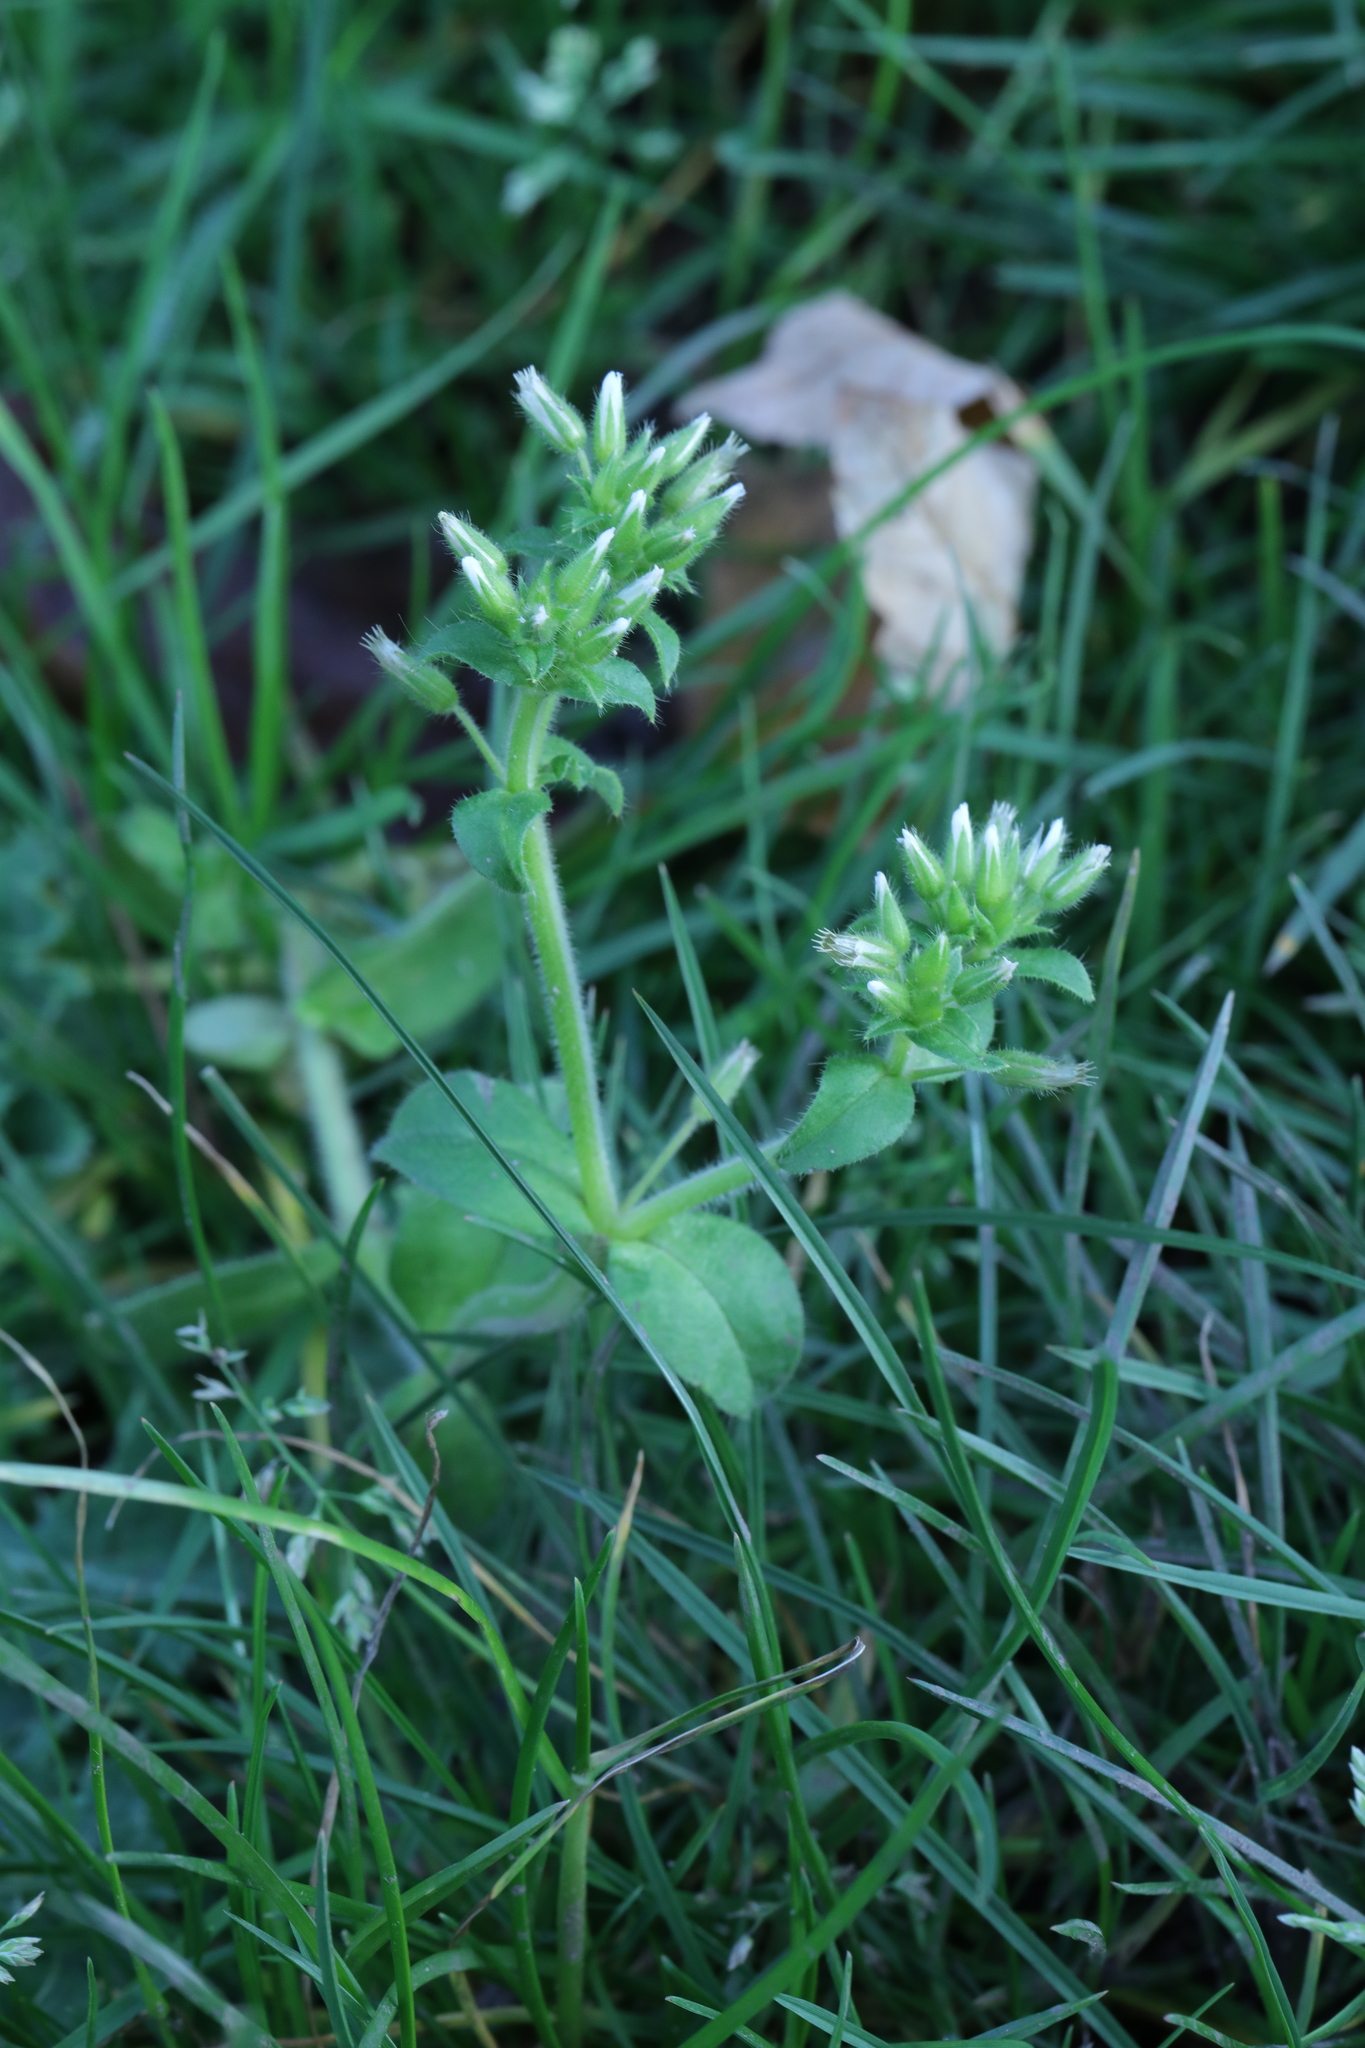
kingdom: Plantae
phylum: Tracheophyta
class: Magnoliopsida
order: Caryophyllales
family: Caryophyllaceae
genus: Cerastium
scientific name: Cerastium glomeratum
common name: Sticky chickweed
